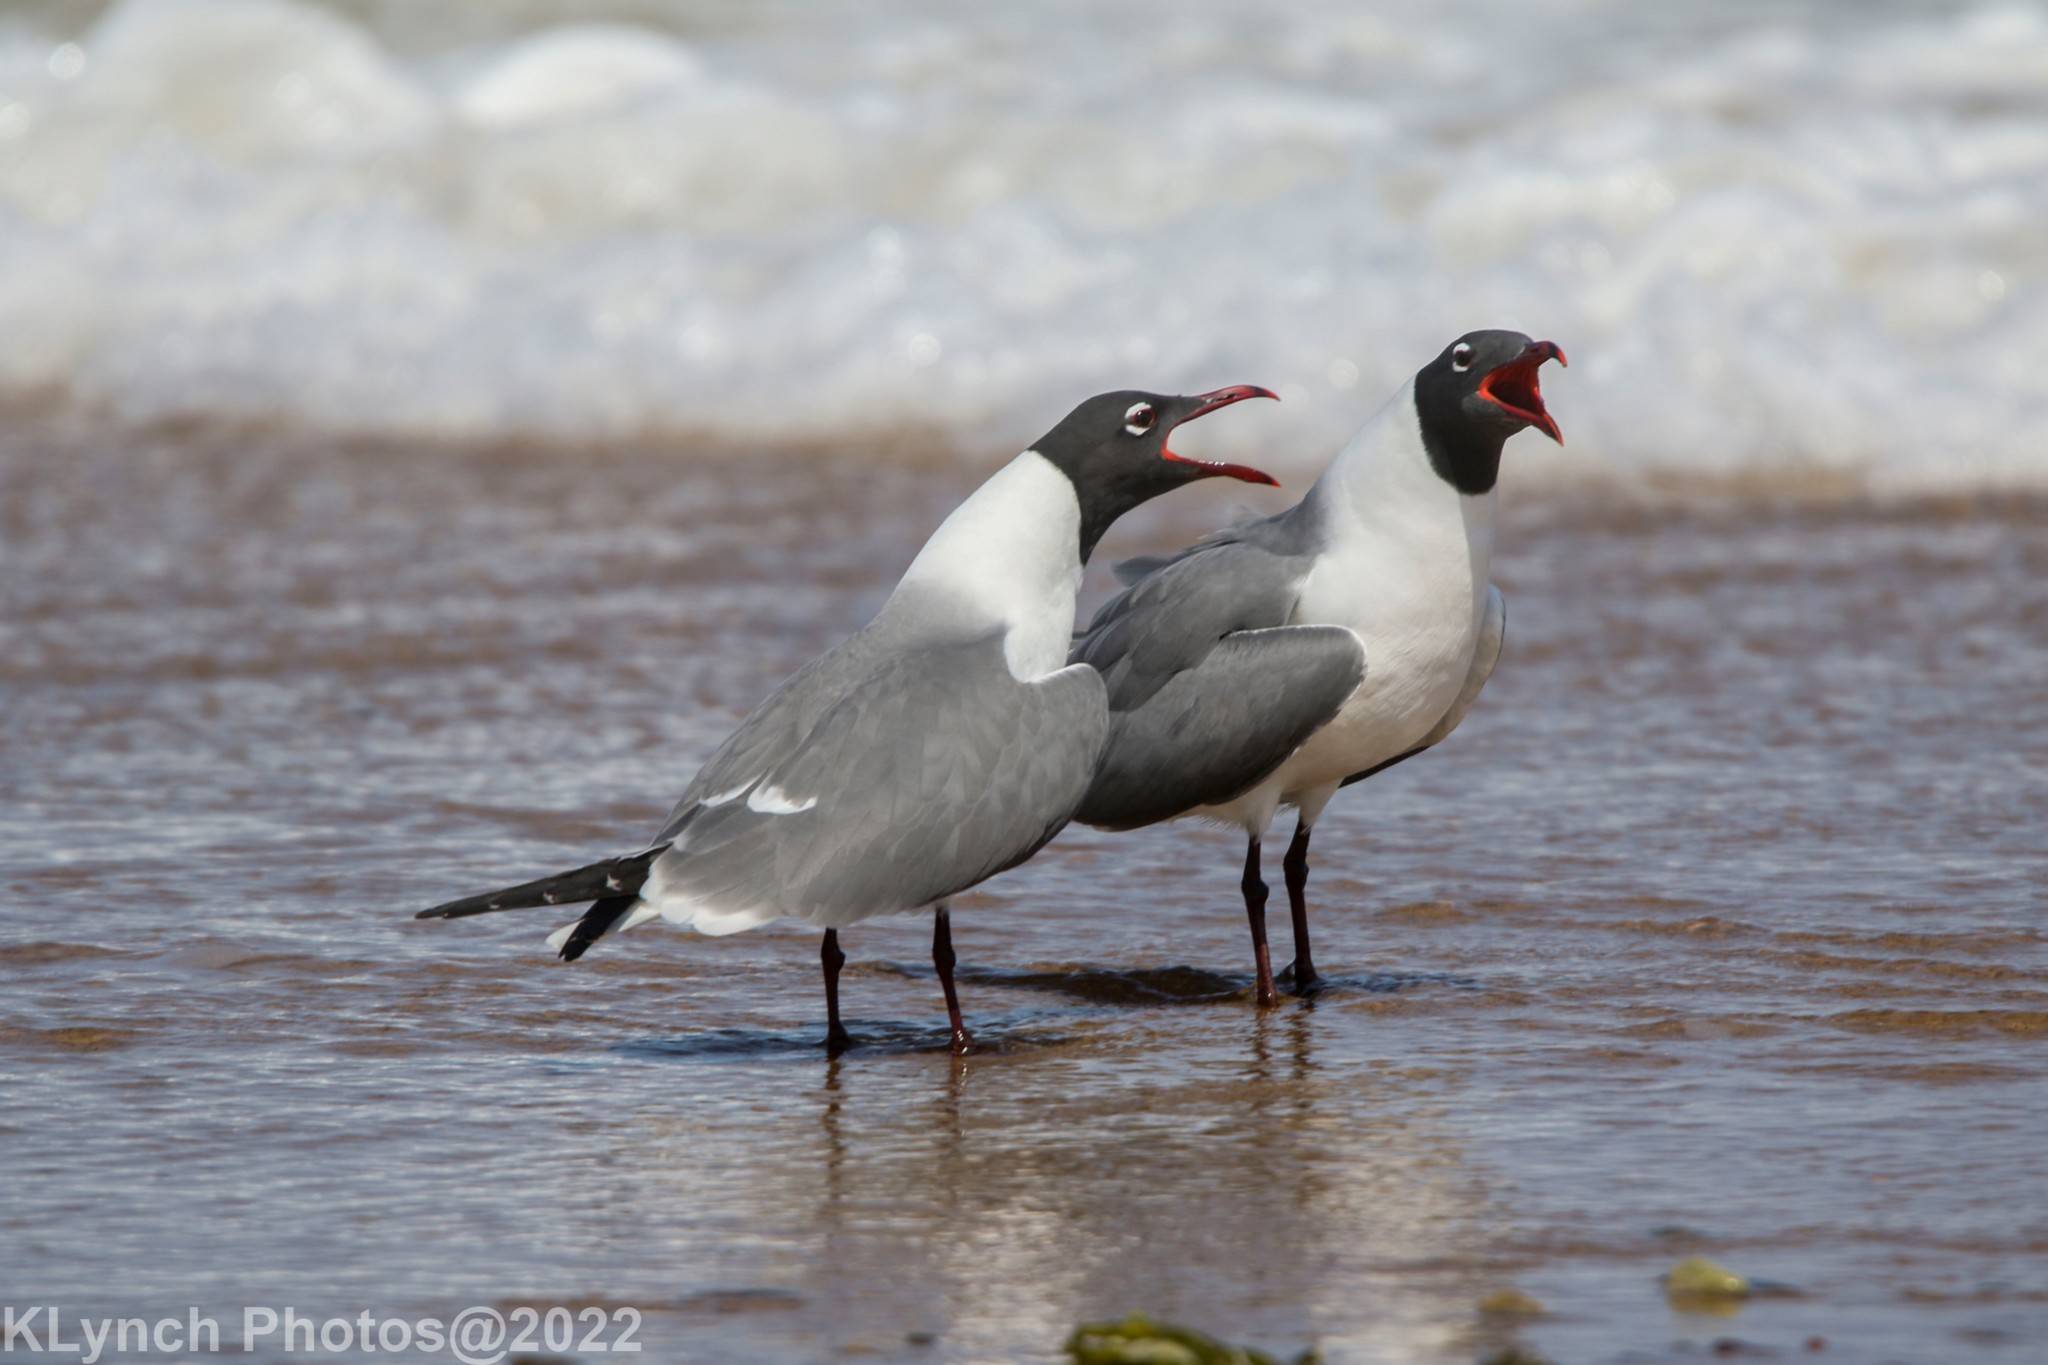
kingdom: Animalia
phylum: Chordata
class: Aves
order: Charadriiformes
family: Laridae
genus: Leucophaeus
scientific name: Leucophaeus atricilla
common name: Laughing gull
